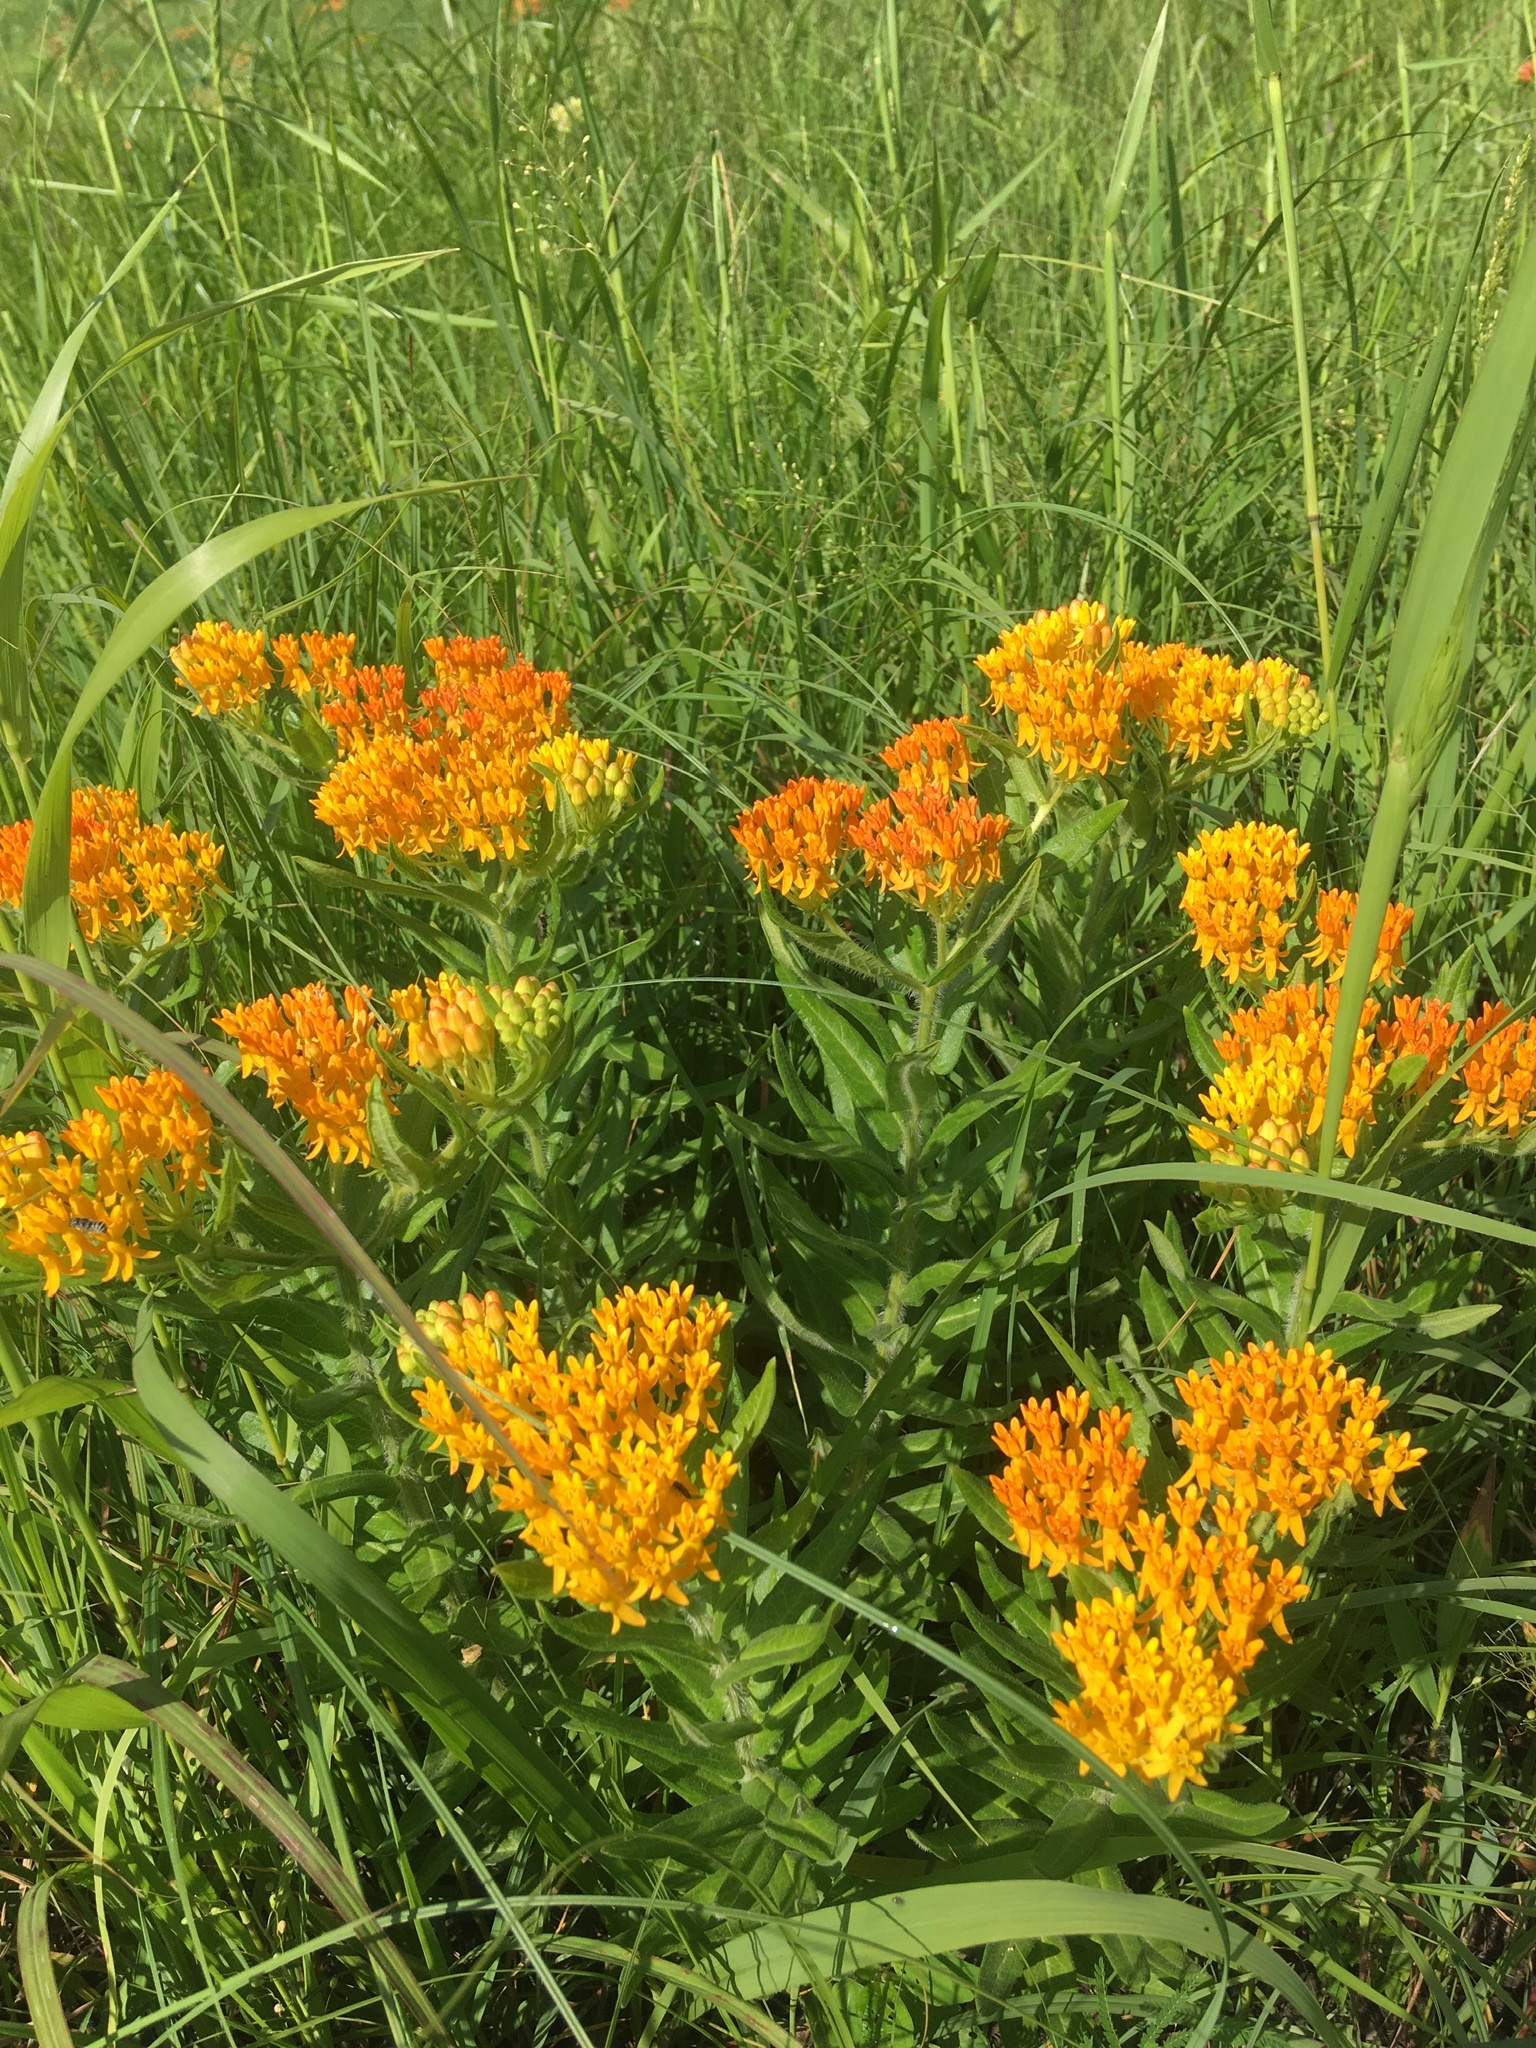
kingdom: Plantae
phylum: Tracheophyta
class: Magnoliopsida
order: Gentianales
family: Apocynaceae
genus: Asclepias
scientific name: Asclepias tuberosa
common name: Butterfly milkweed
